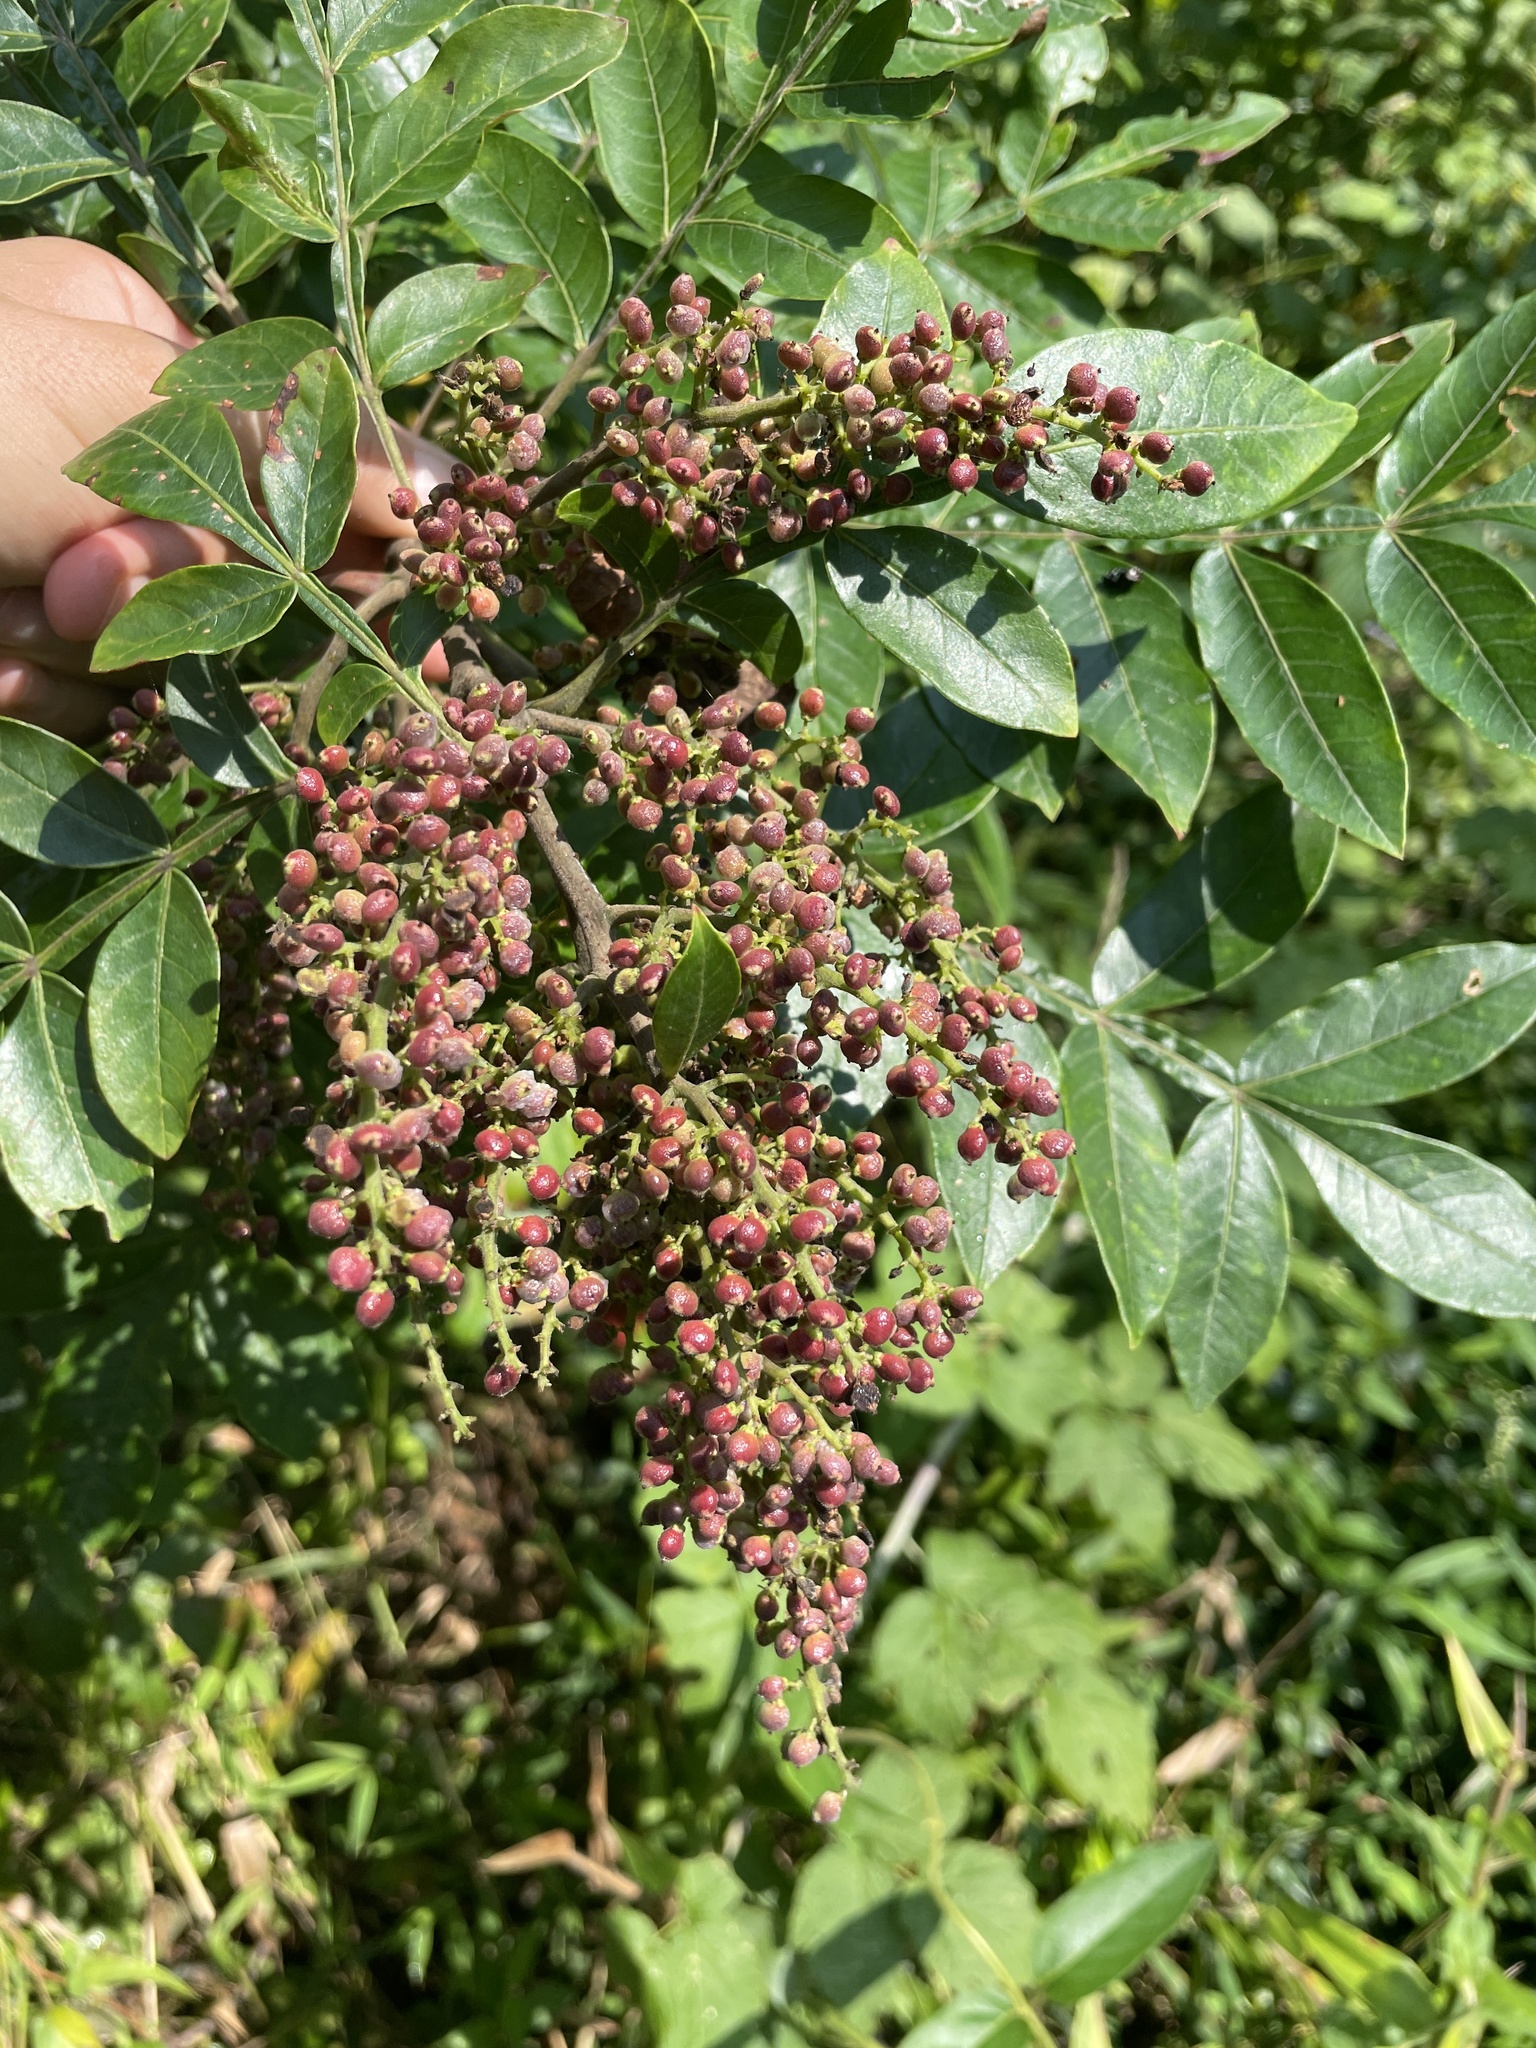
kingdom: Plantae
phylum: Tracheophyta
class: Magnoliopsida
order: Sapindales
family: Anacardiaceae
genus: Rhus
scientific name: Rhus copallina
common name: Shining sumac
